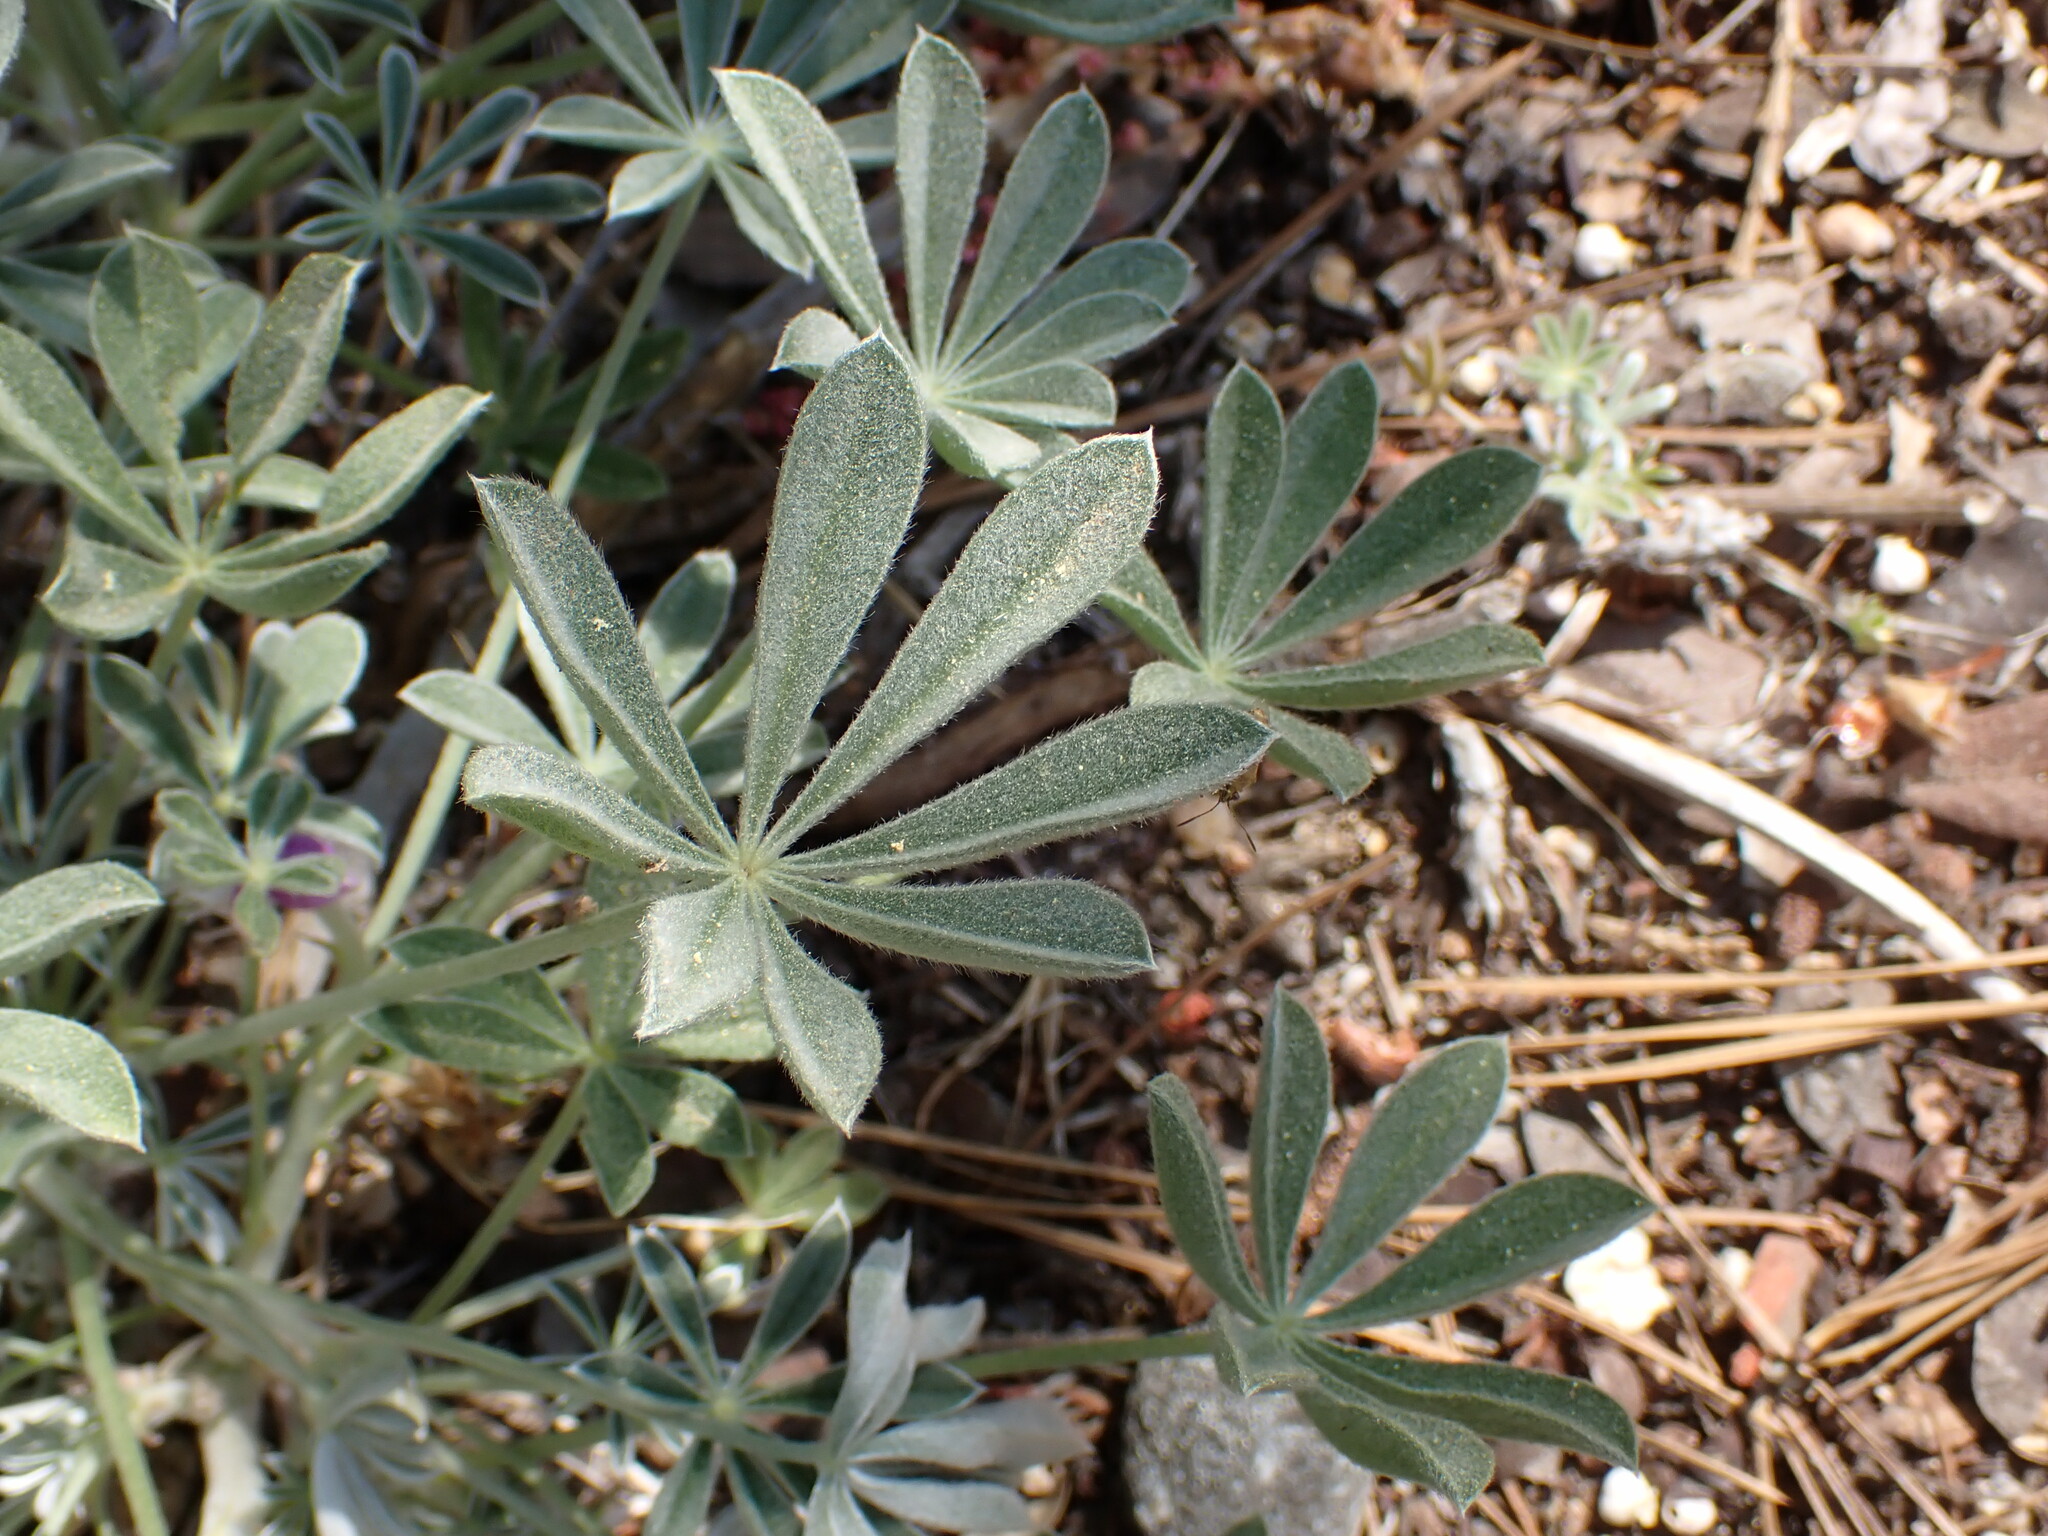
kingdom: Plantae
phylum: Tracheophyta
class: Magnoliopsida
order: Fabales
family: Fabaceae
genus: Lupinus
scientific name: Lupinus excubitus
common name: Grape soda lupine
